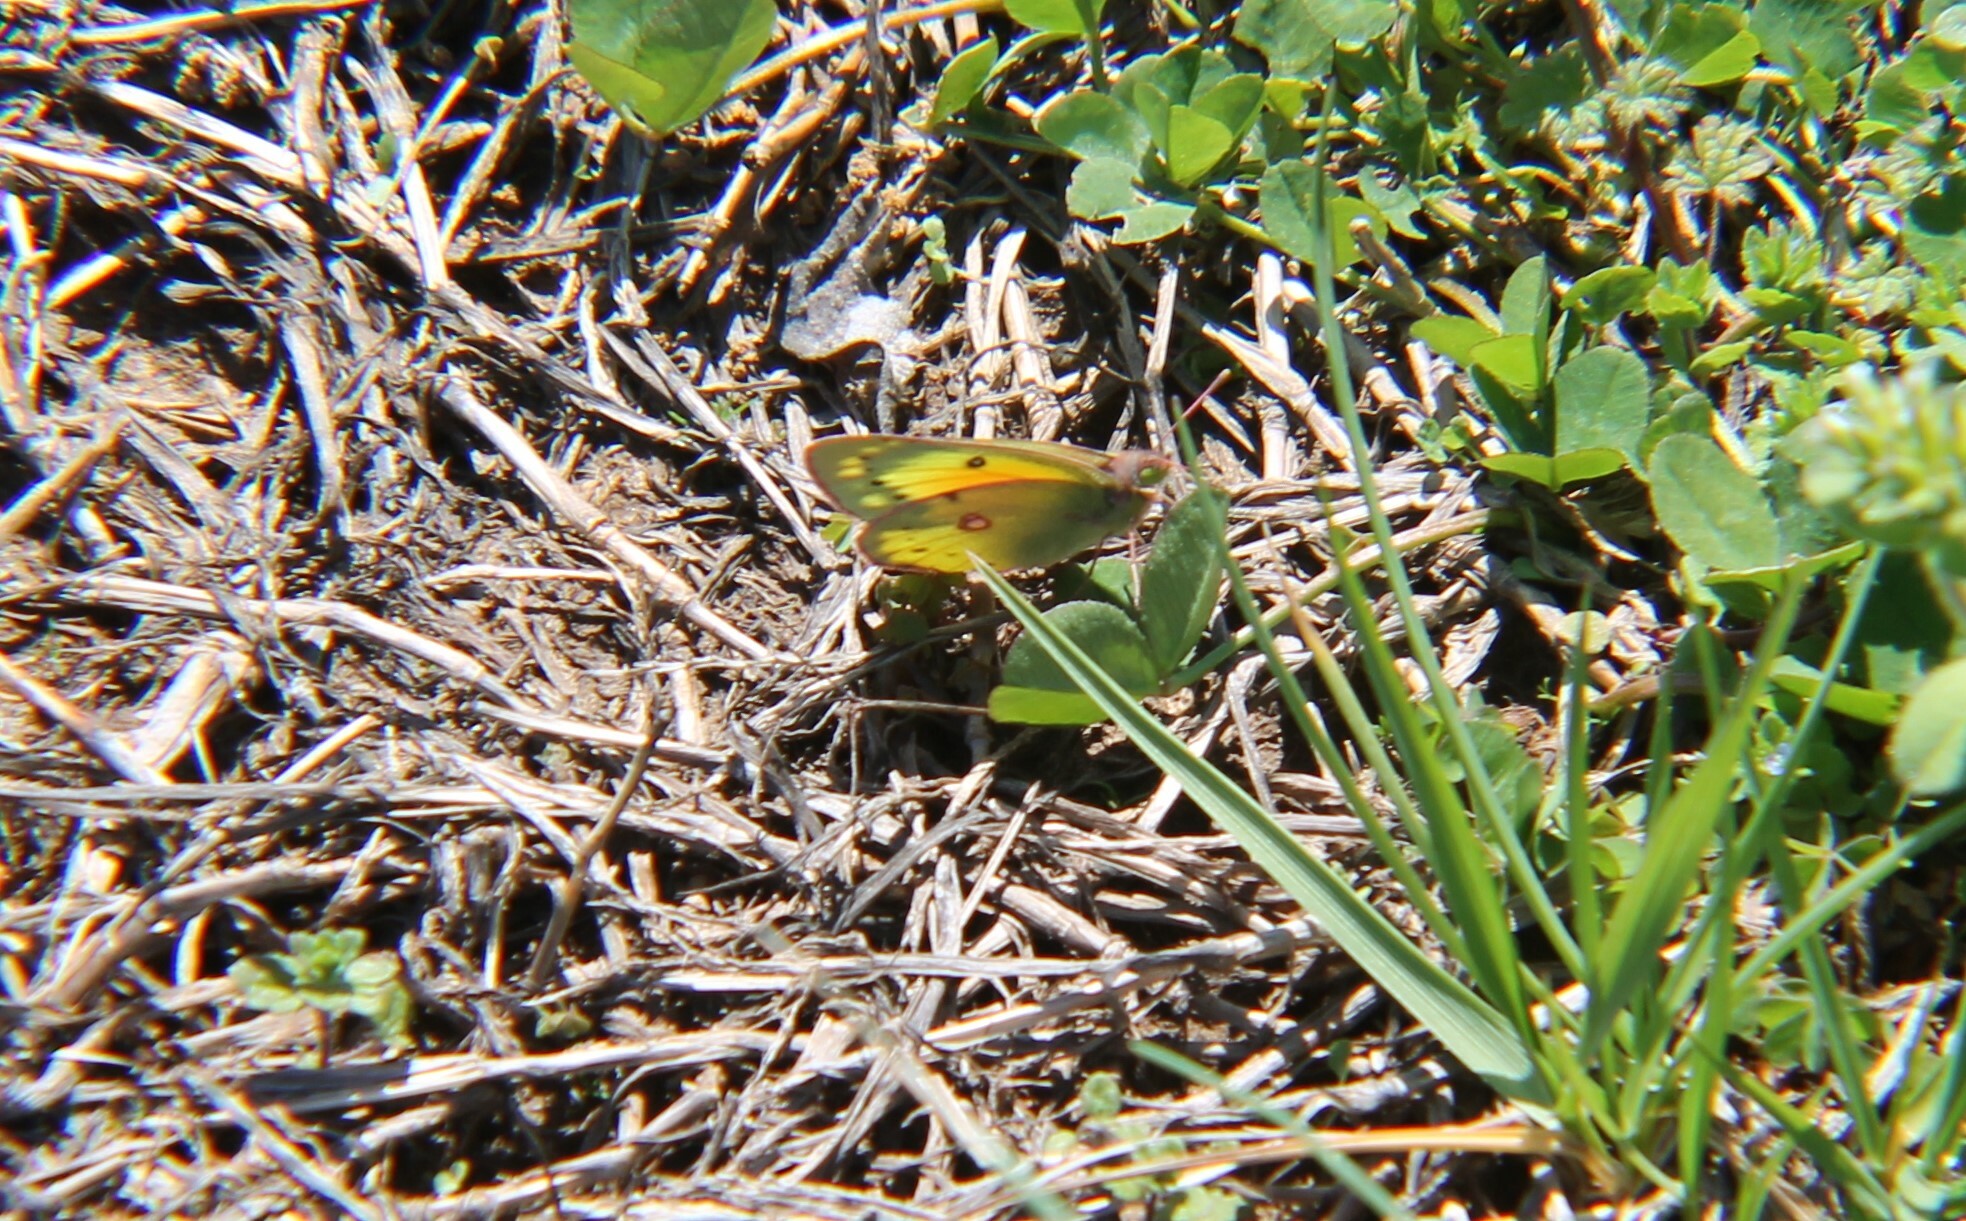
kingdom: Animalia
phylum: Arthropoda
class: Insecta
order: Lepidoptera
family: Pieridae
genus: Colias
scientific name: Colias eurytheme
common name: Alfalfa butterfly
